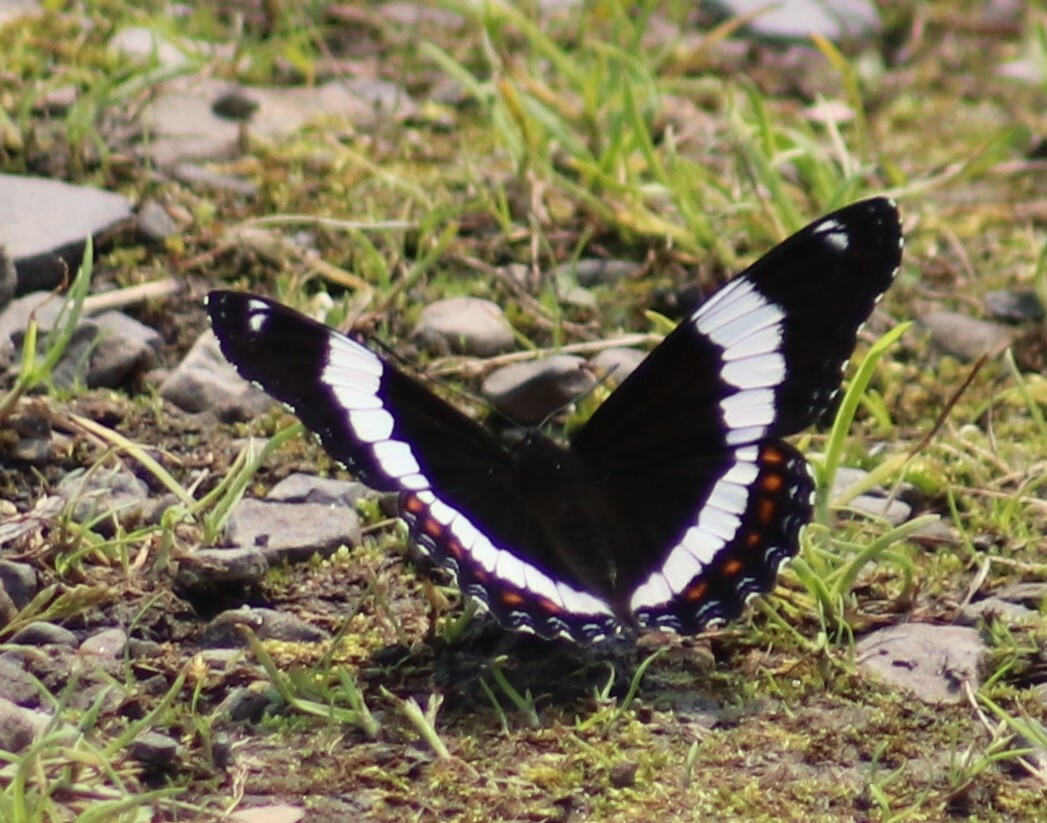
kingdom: Animalia
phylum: Arthropoda
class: Insecta
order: Lepidoptera
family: Nymphalidae
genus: Limenitis
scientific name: Limenitis arthemis
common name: Red-spotted admiral
